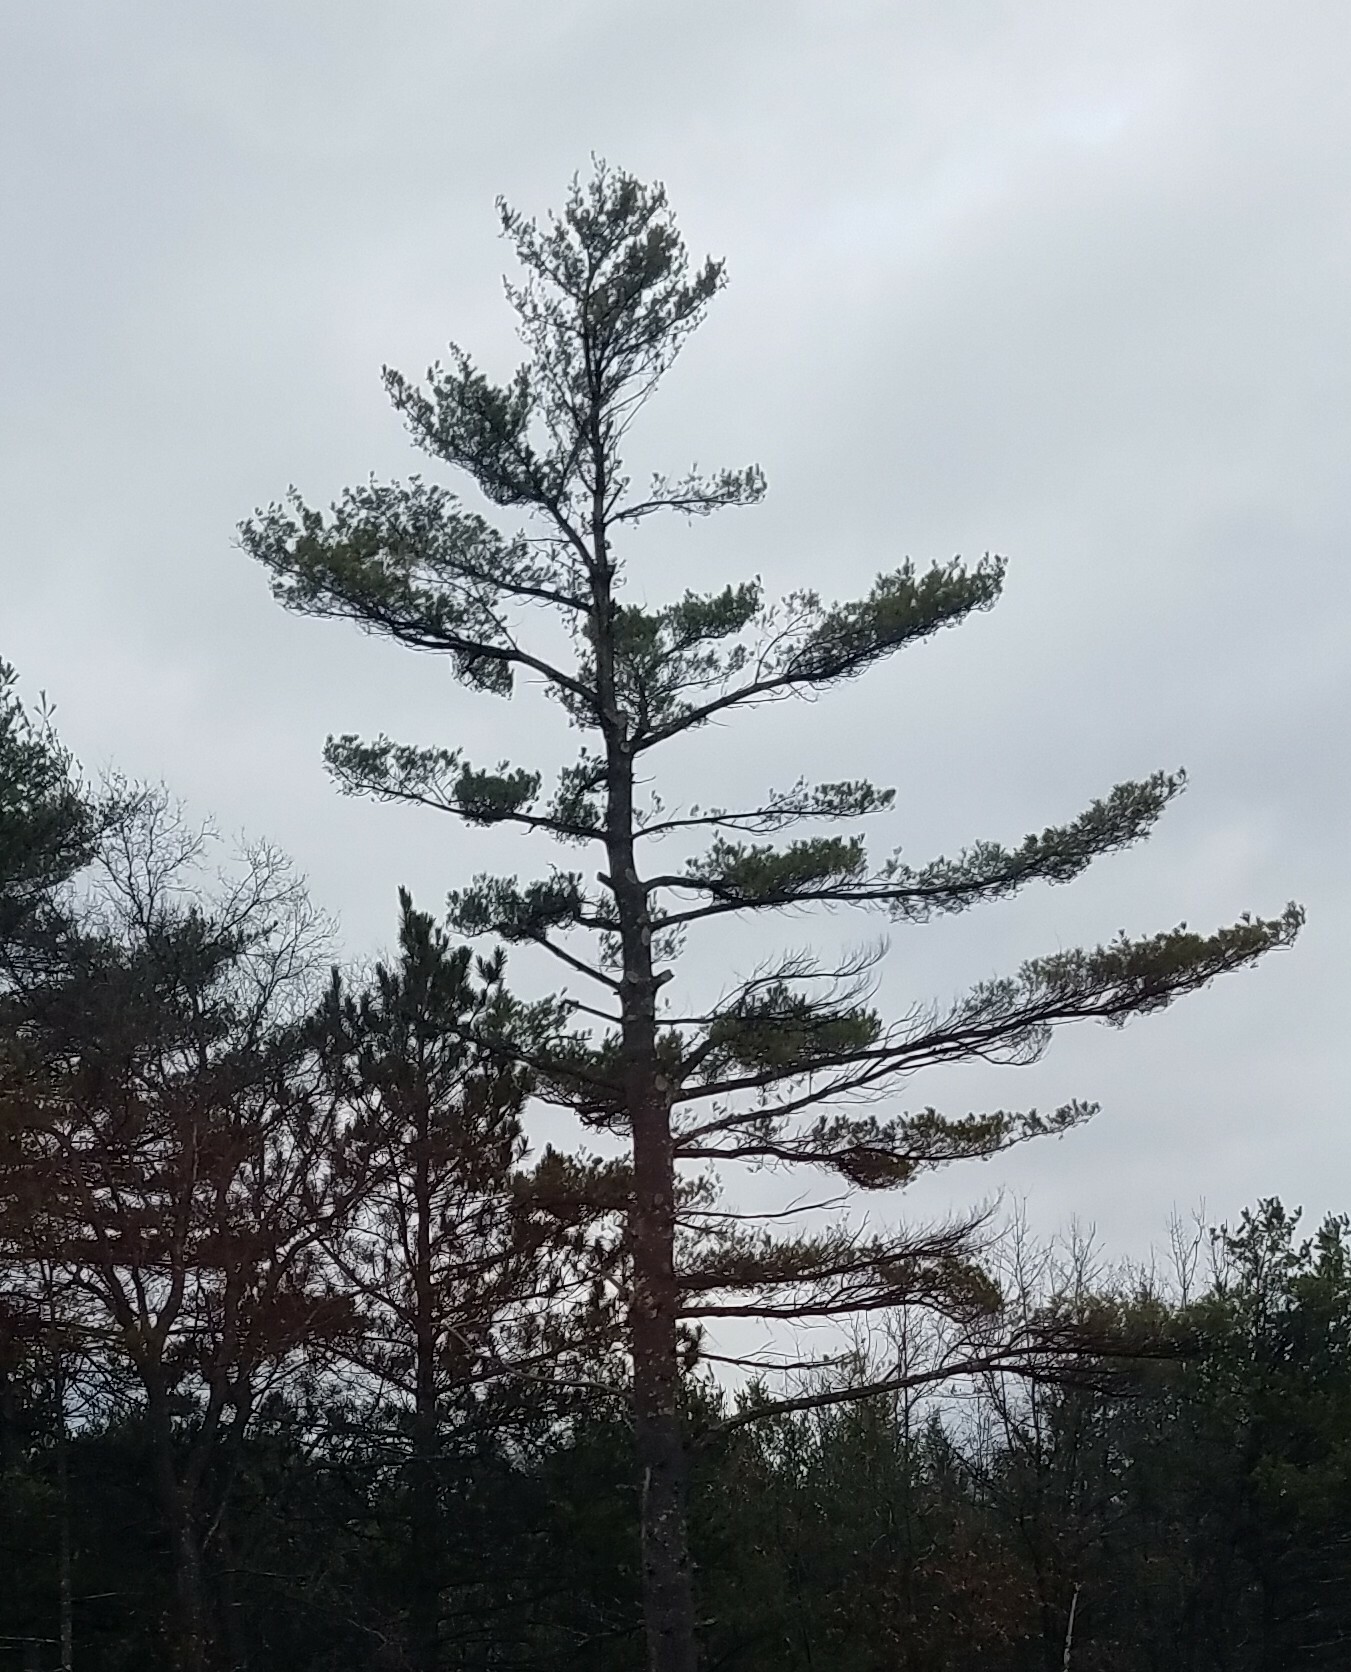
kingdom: Plantae
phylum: Tracheophyta
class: Pinopsida
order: Pinales
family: Pinaceae
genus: Pinus
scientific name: Pinus strobus
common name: Weymouth pine
